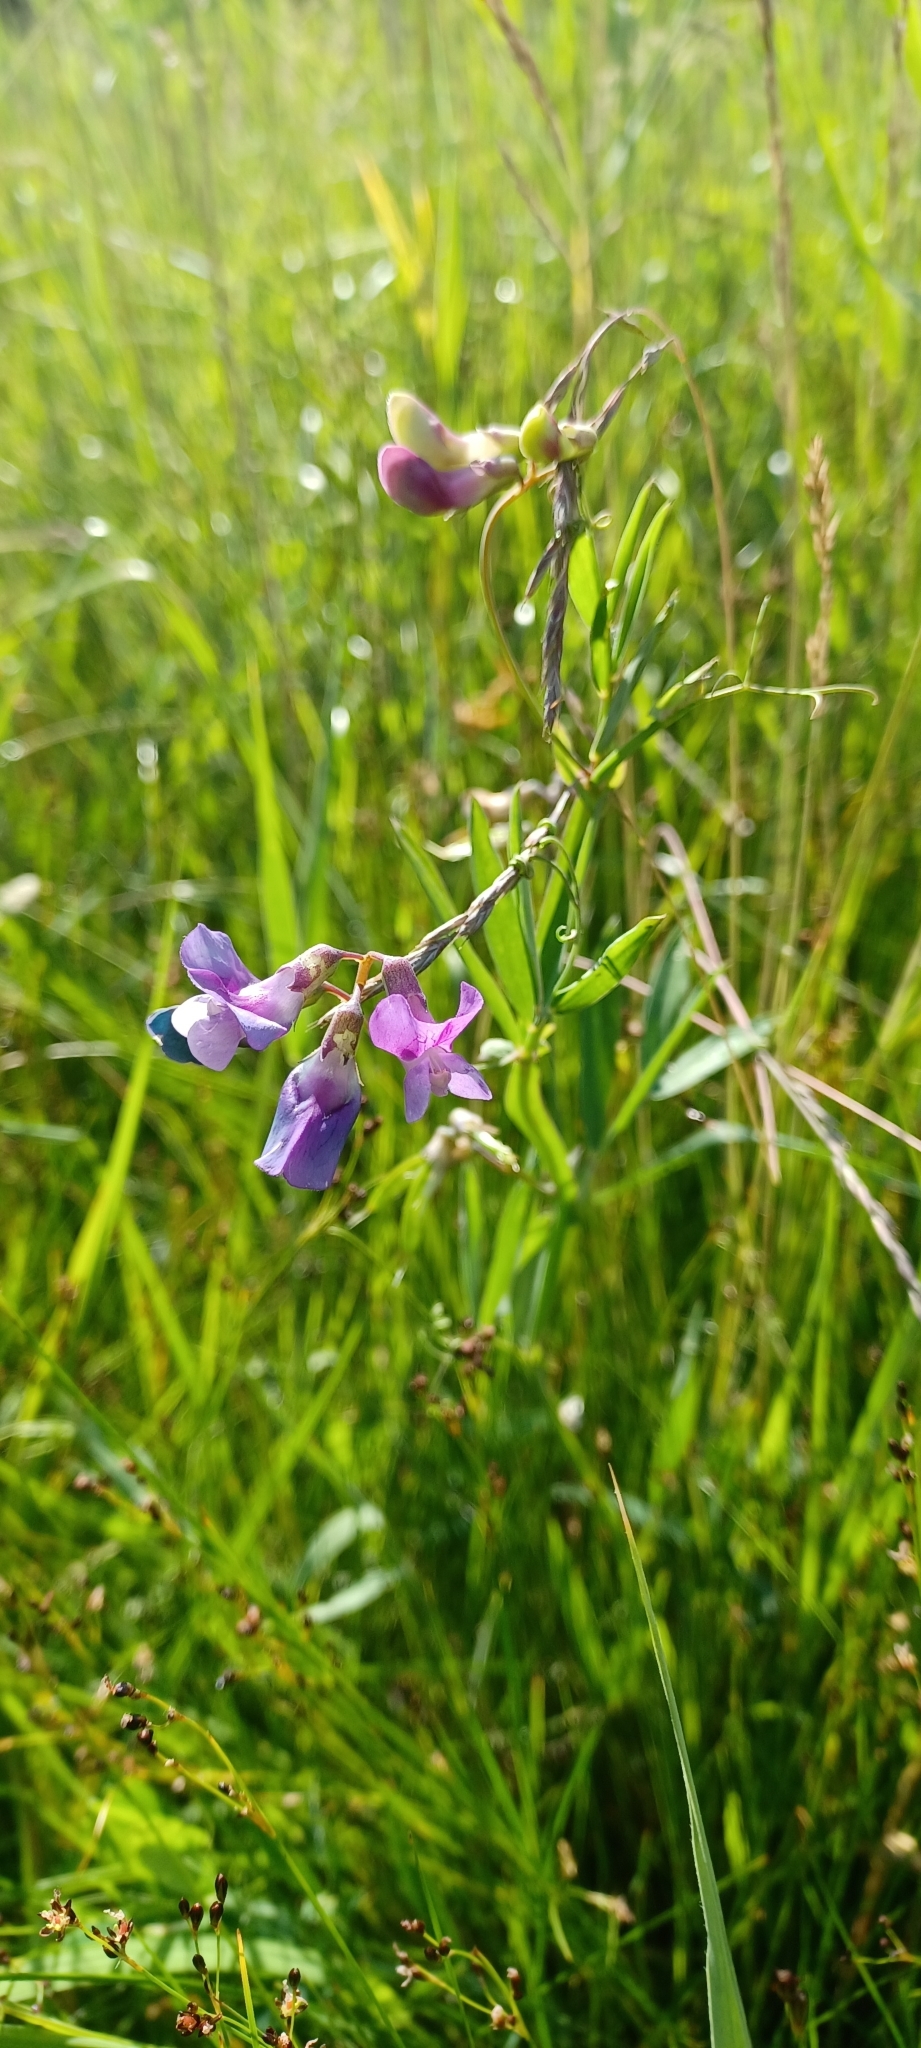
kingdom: Plantae
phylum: Tracheophyta
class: Magnoliopsida
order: Fabales
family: Fabaceae
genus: Lathyrus
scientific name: Lathyrus palustris
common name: Marsh pea
